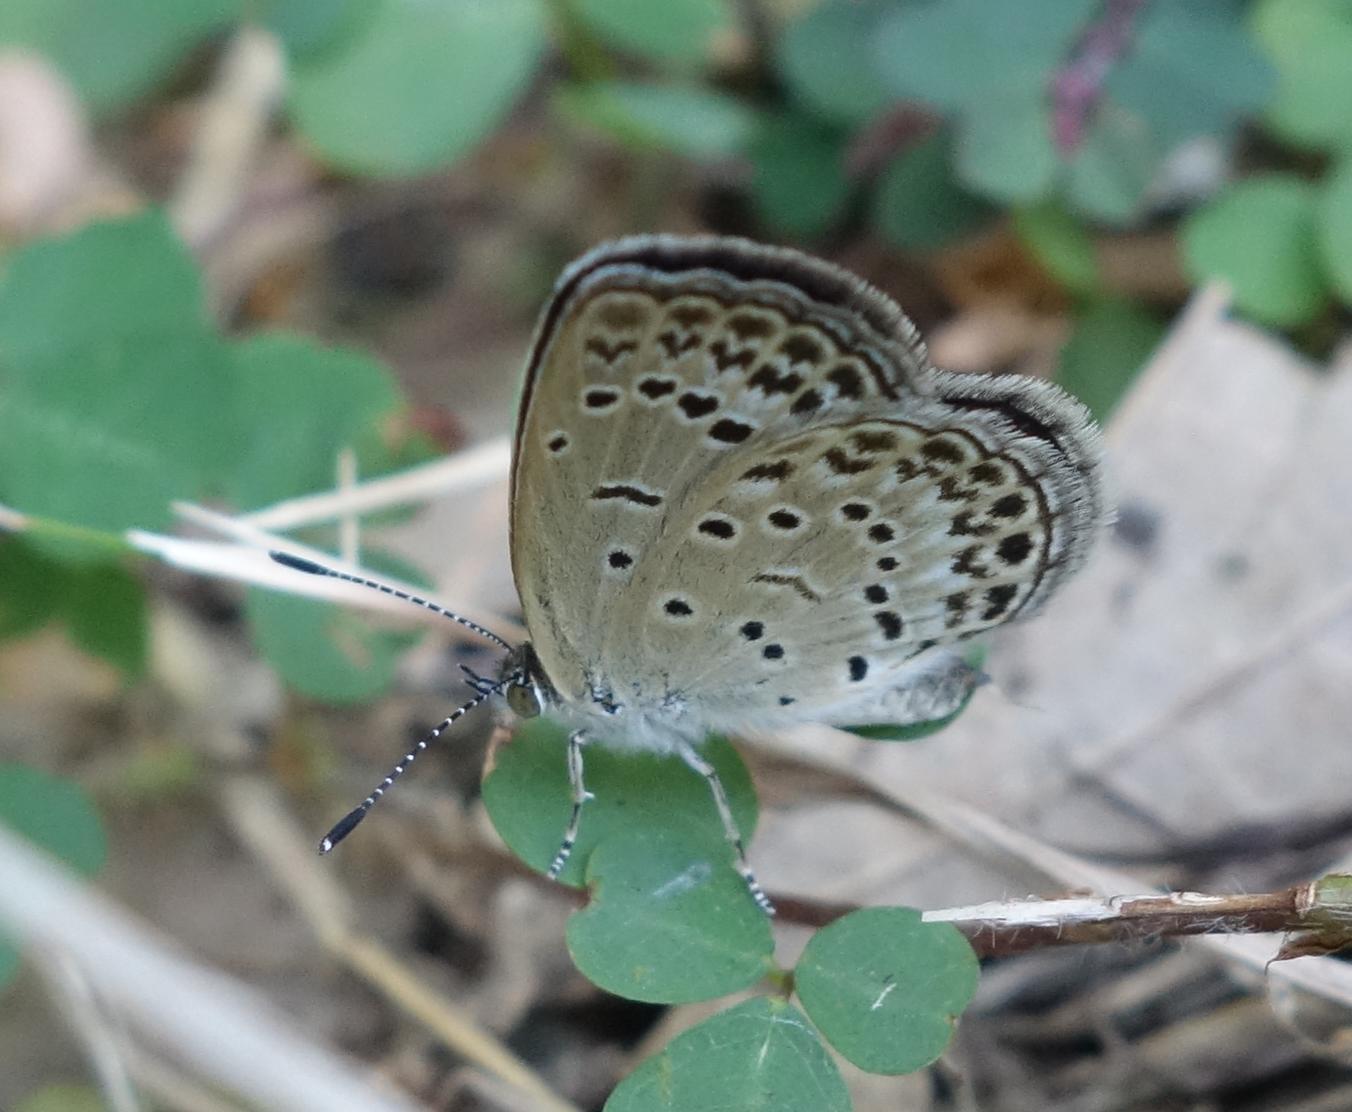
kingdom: Animalia
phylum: Arthropoda
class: Insecta
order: Lepidoptera
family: Lycaenidae
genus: Pseudozizeeria
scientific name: Pseudozizeeria maha
